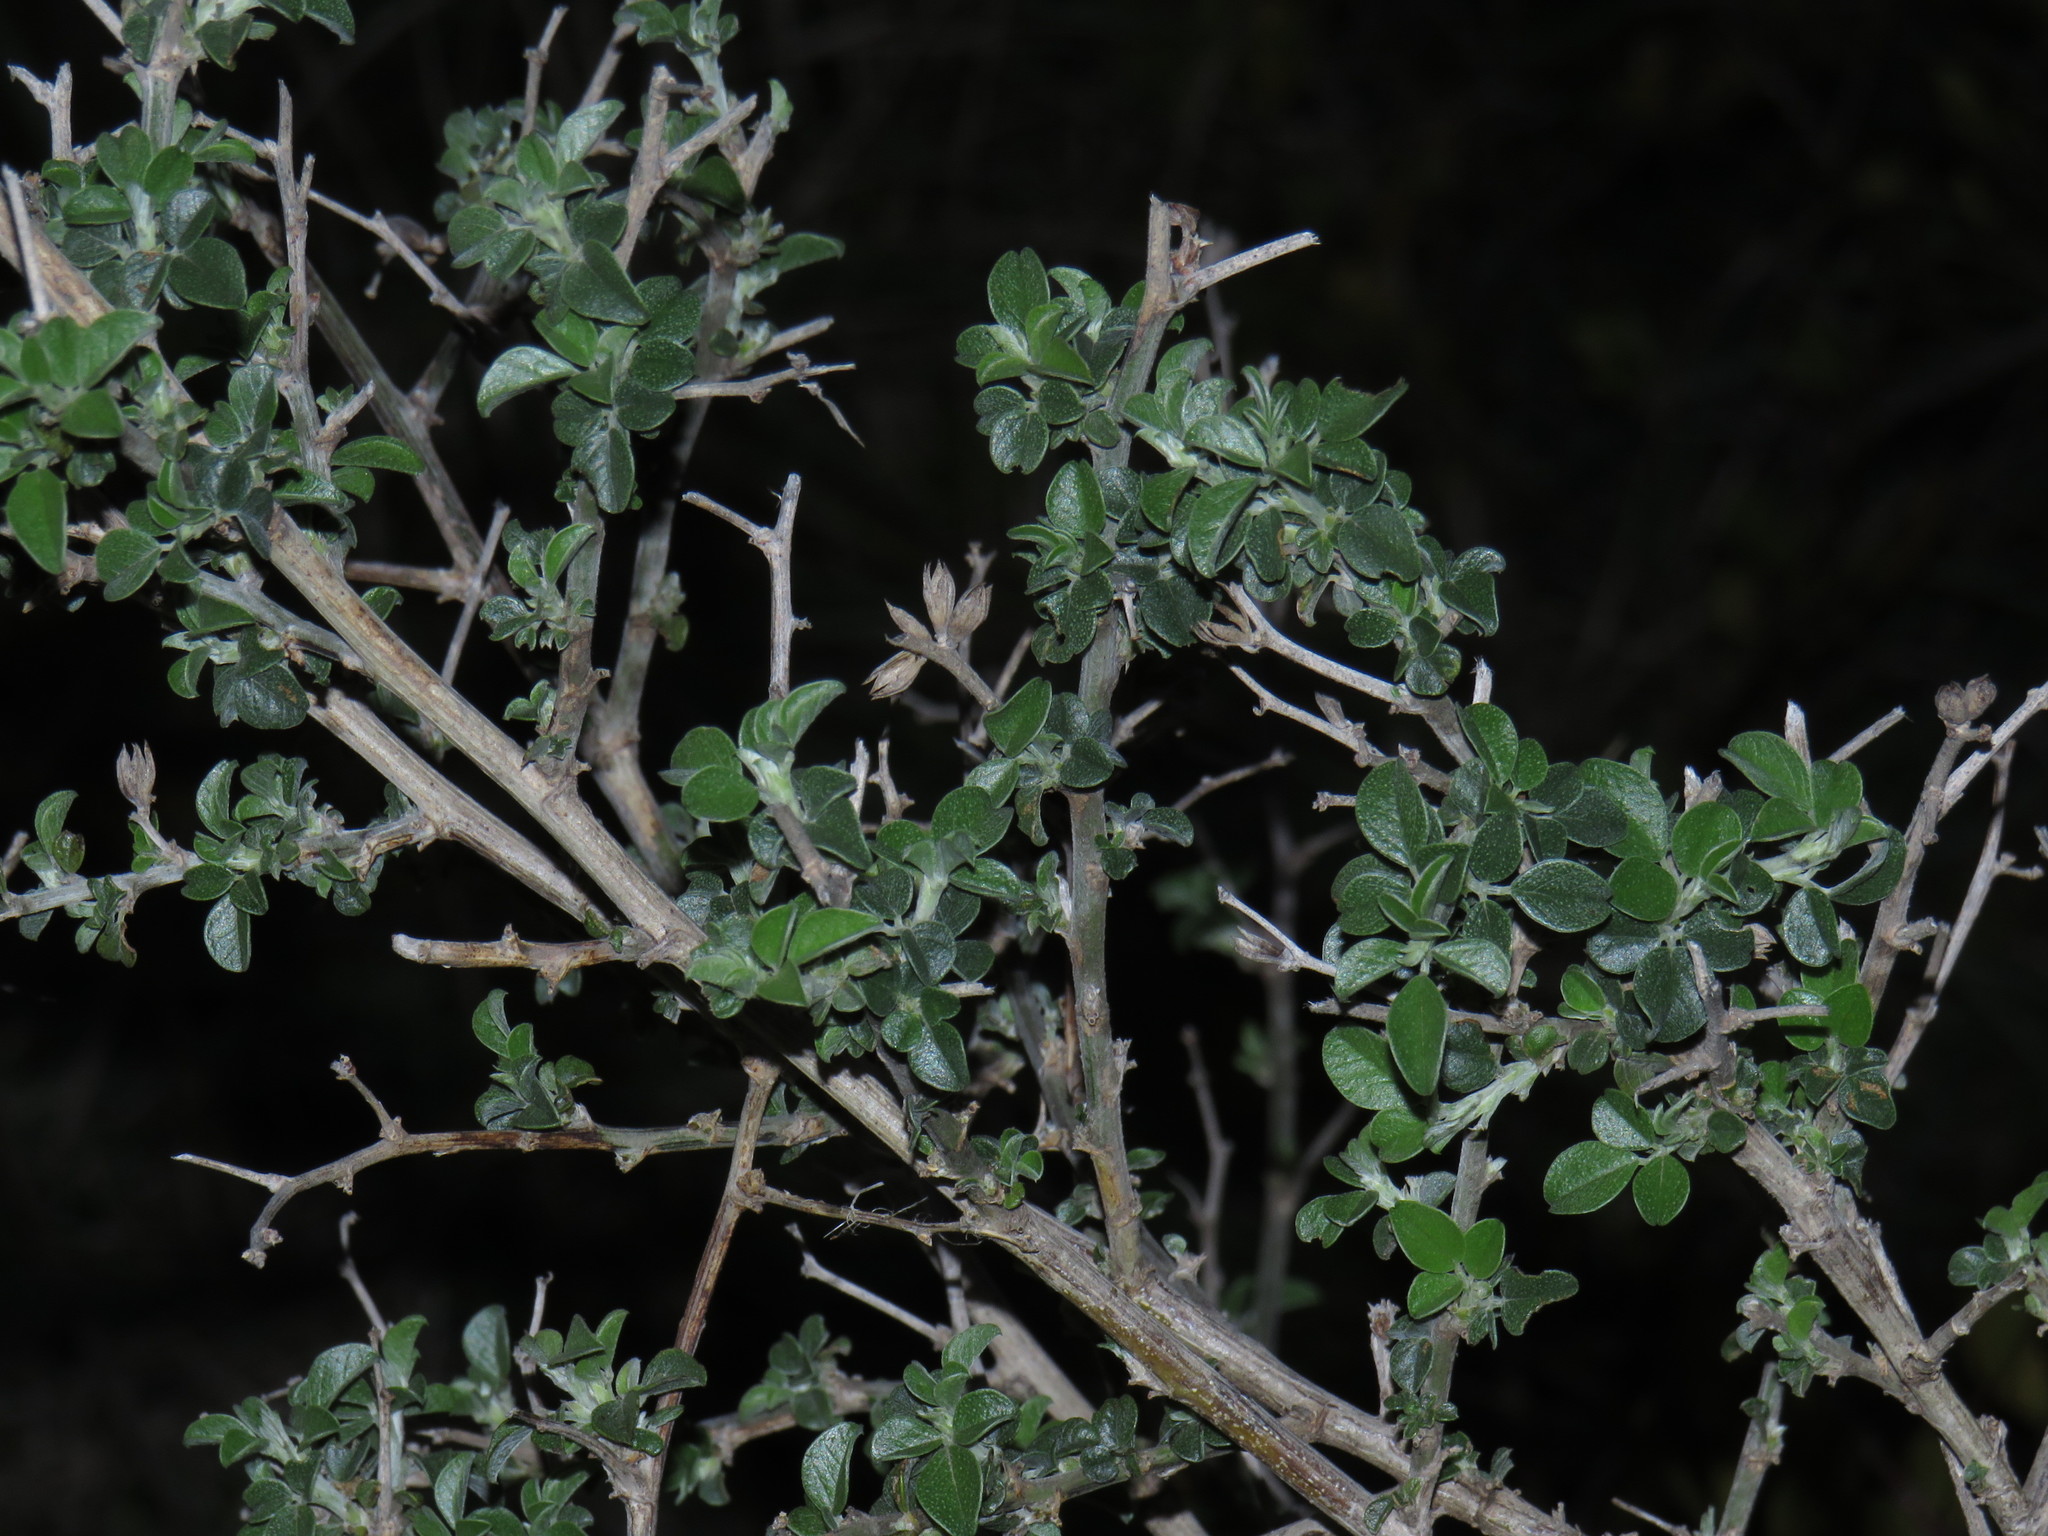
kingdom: Plantae
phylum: Tracheophyta
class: Magnoliopsida
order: Fabales
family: Fabaceae
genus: Psoralea
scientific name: Psoralea hirta
